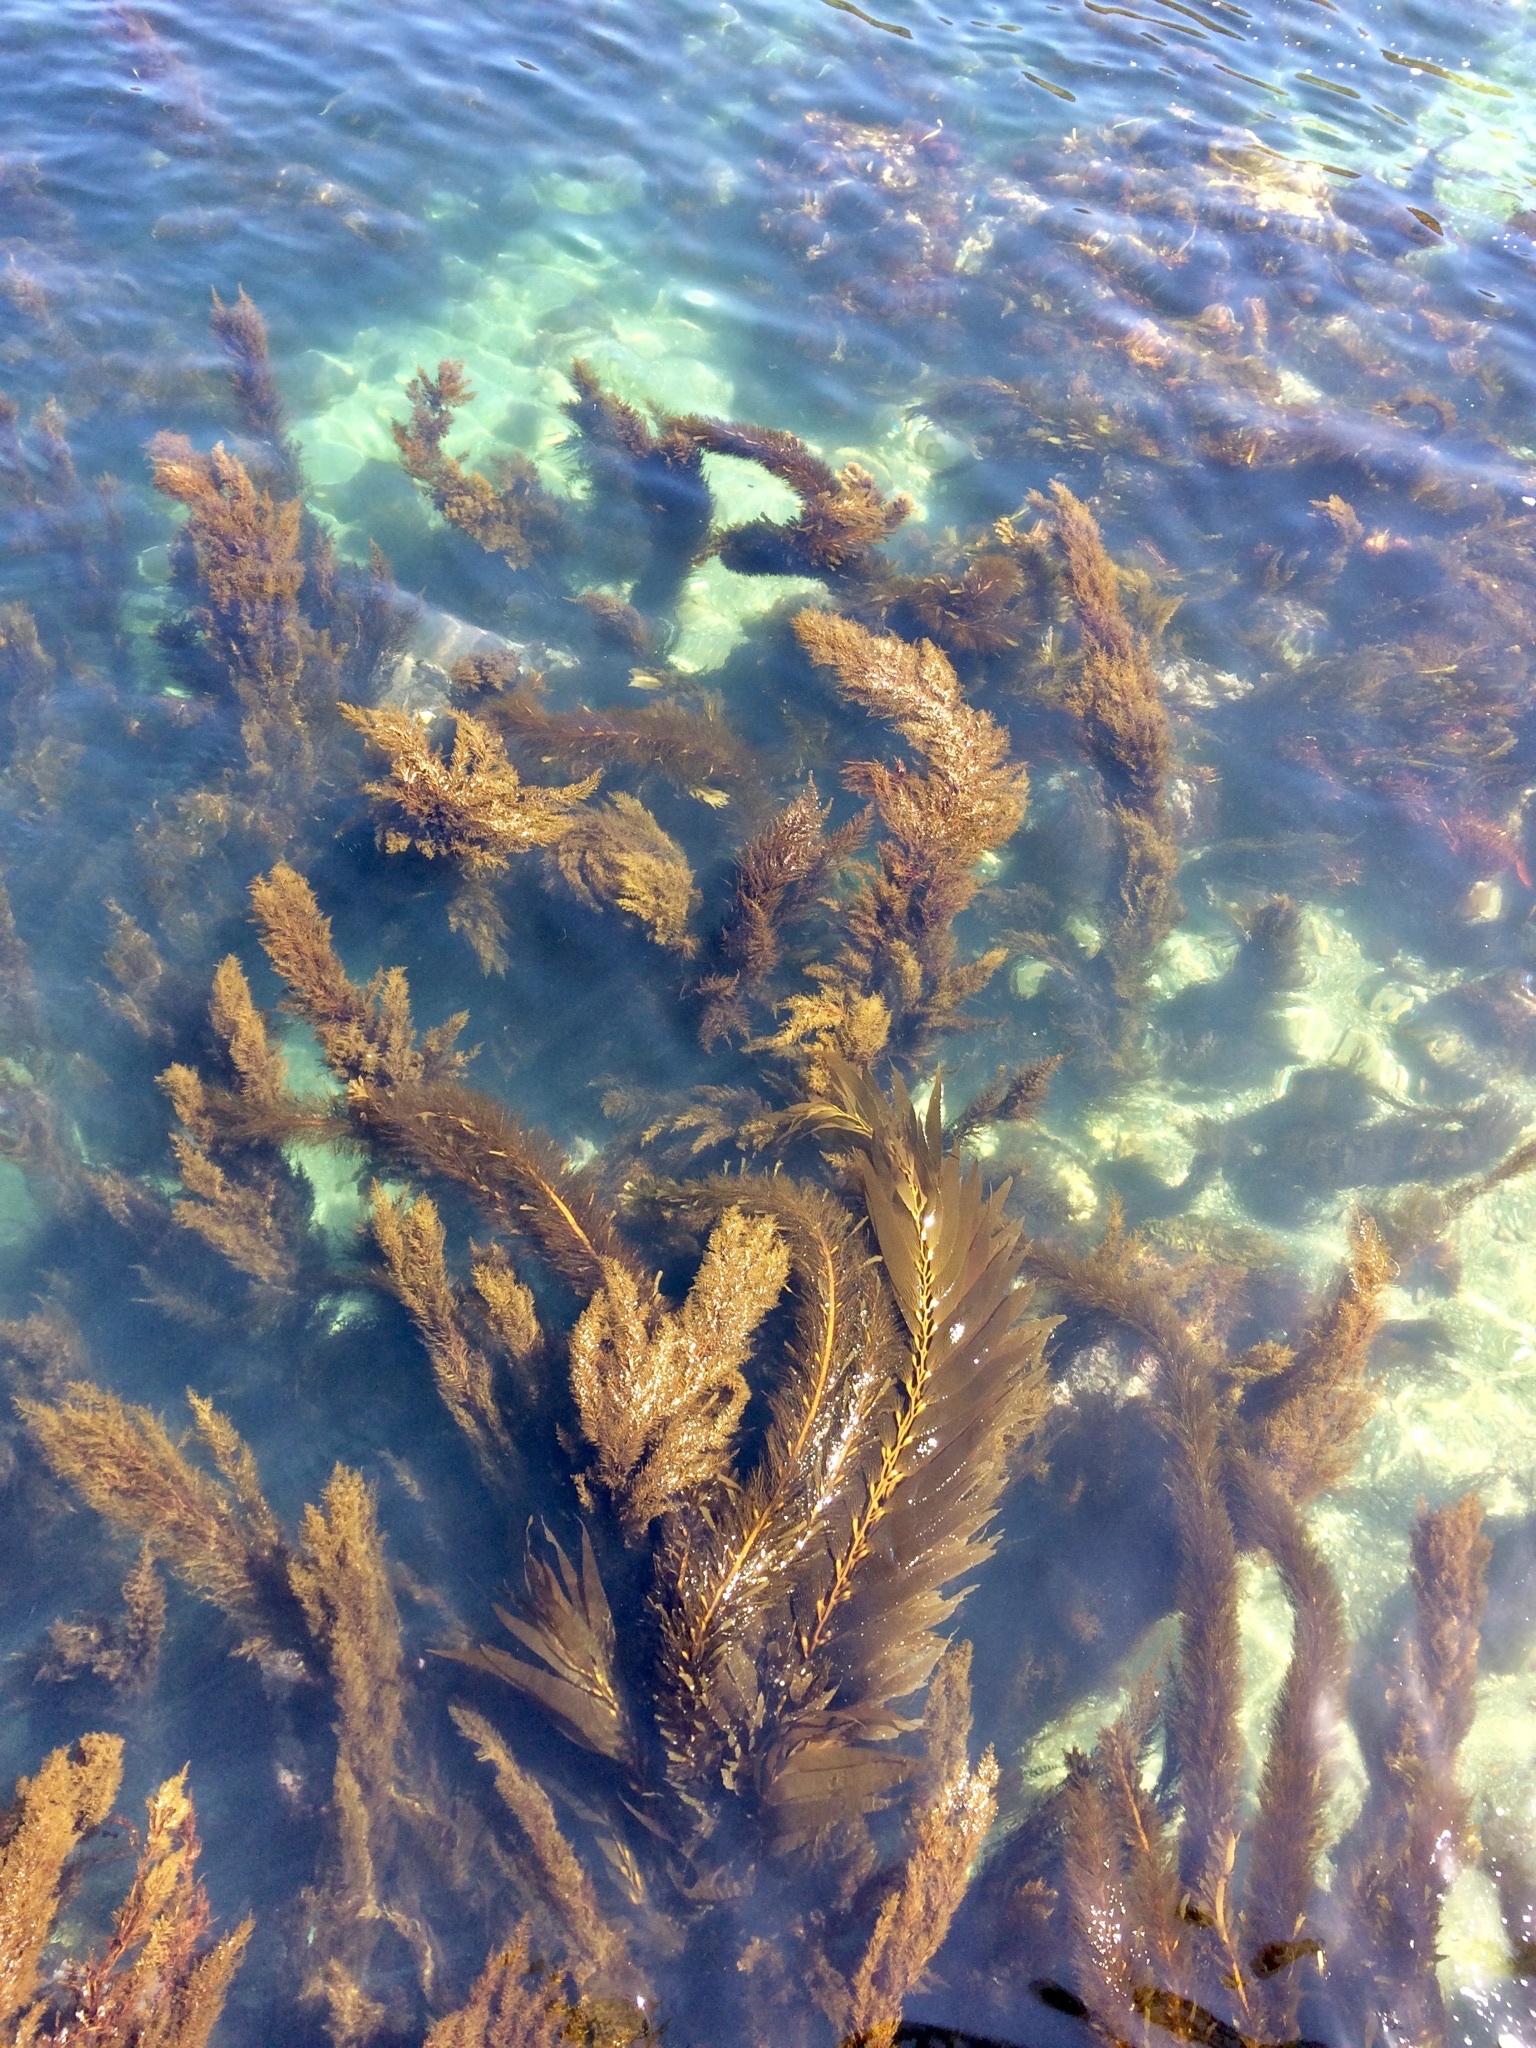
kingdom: Chromista
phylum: Ochrophyta
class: Phaeophyceae
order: Laminariales
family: Laminariaceae
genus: Macrocystis
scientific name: Macrocystis pyrifera
